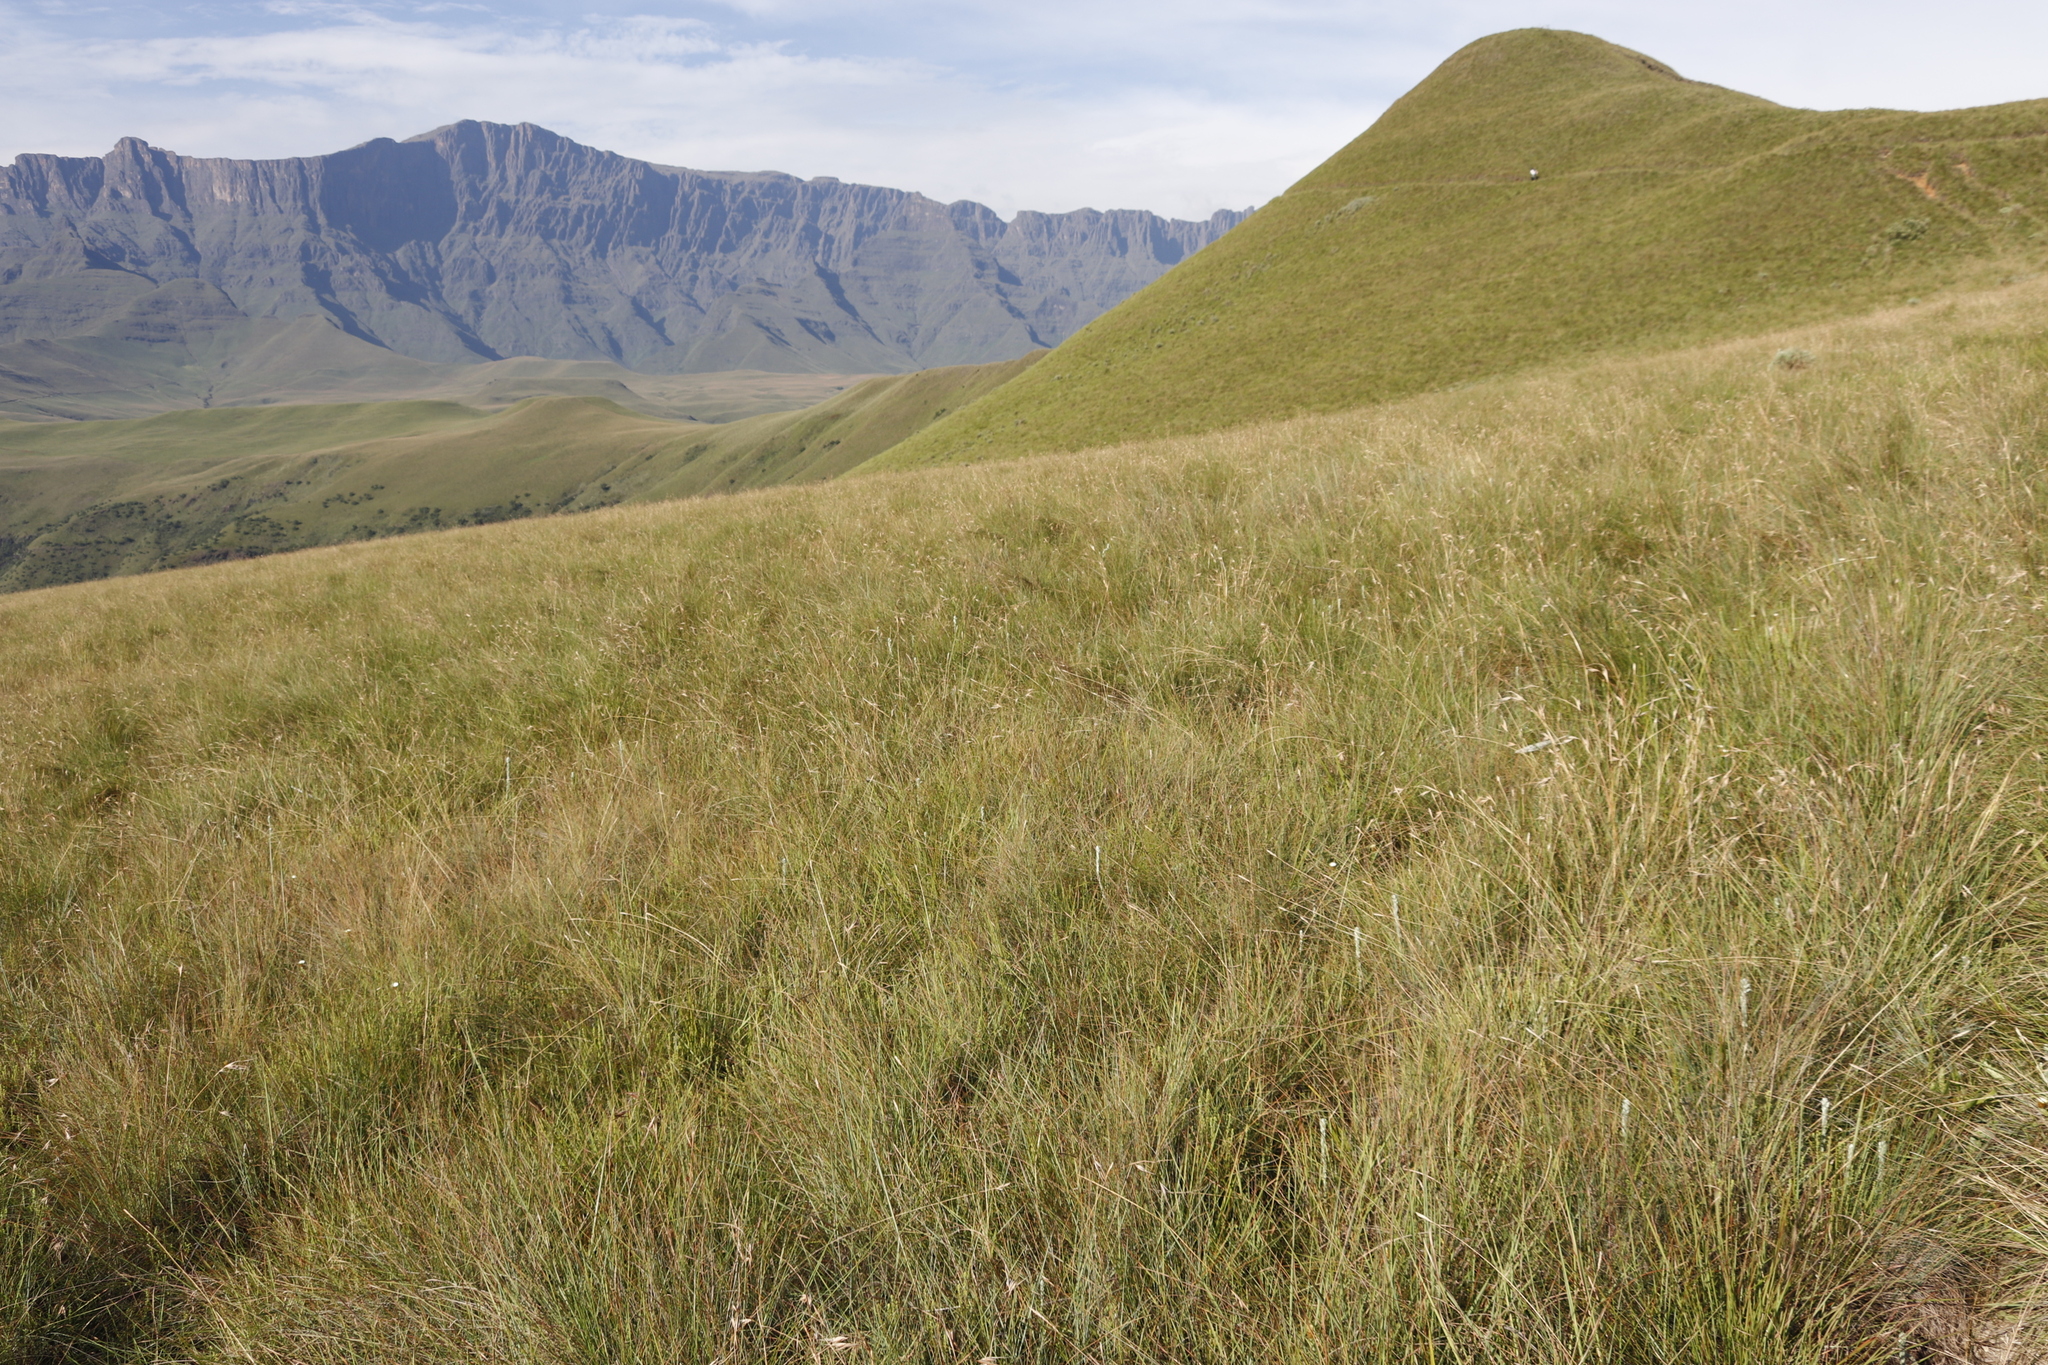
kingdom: Plantae
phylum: Tracheophyta
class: Liliopsida
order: Poales
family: Poaceae
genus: Themeda
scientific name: Themeda triandra
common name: Kangaroo grass
